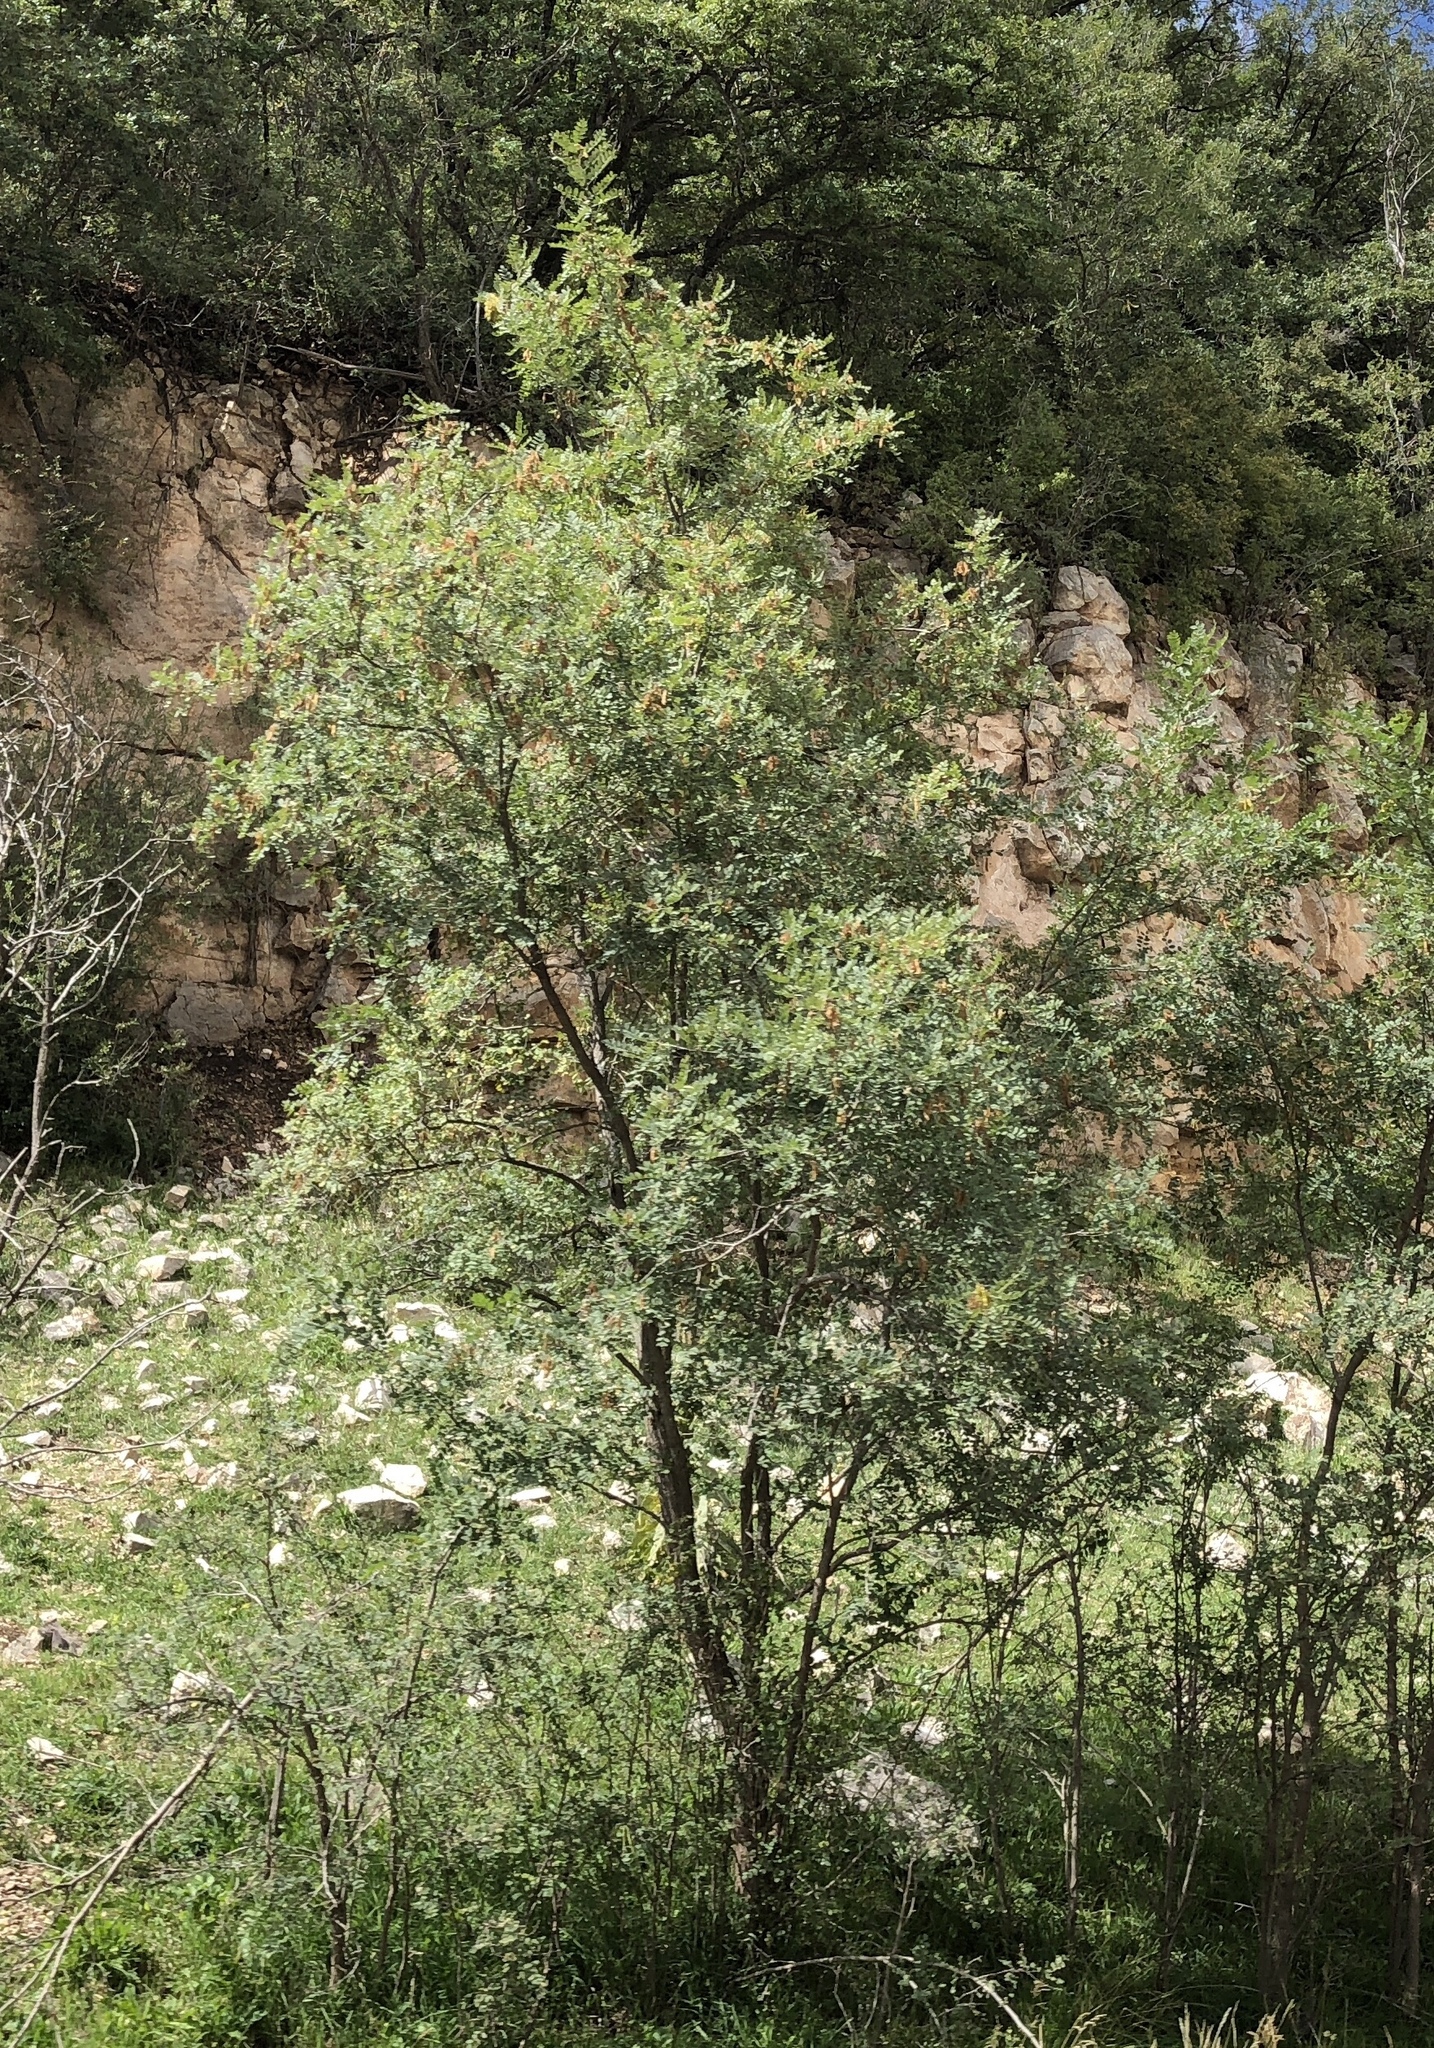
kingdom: Plantae
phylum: Tracheophyta
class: Magnoliopsida
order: Fabales
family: Fabaceae
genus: Robinia
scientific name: Robinia neomexicana
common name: New mexico locust
